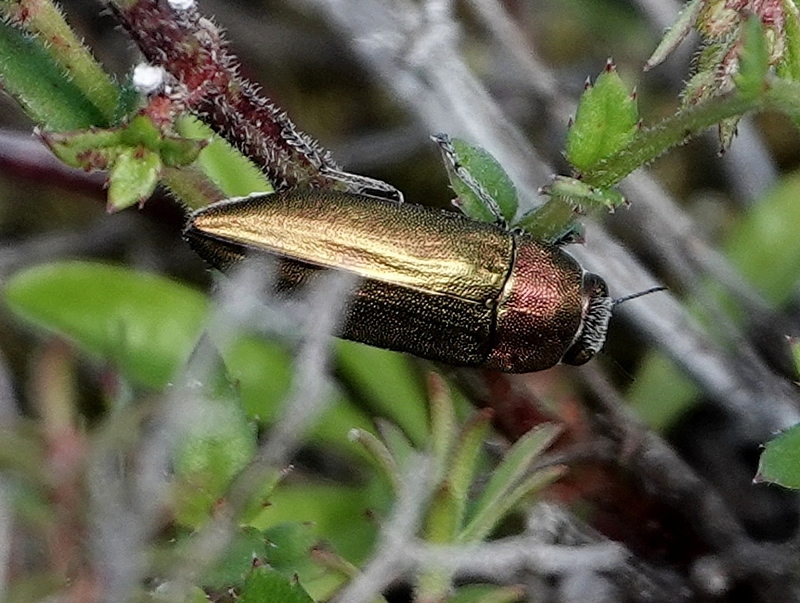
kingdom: Animalia
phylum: Arthropoda
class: Insecta
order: Coleoptera
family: Buprestidae
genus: Melobasis
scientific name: Melobasis propinqua
